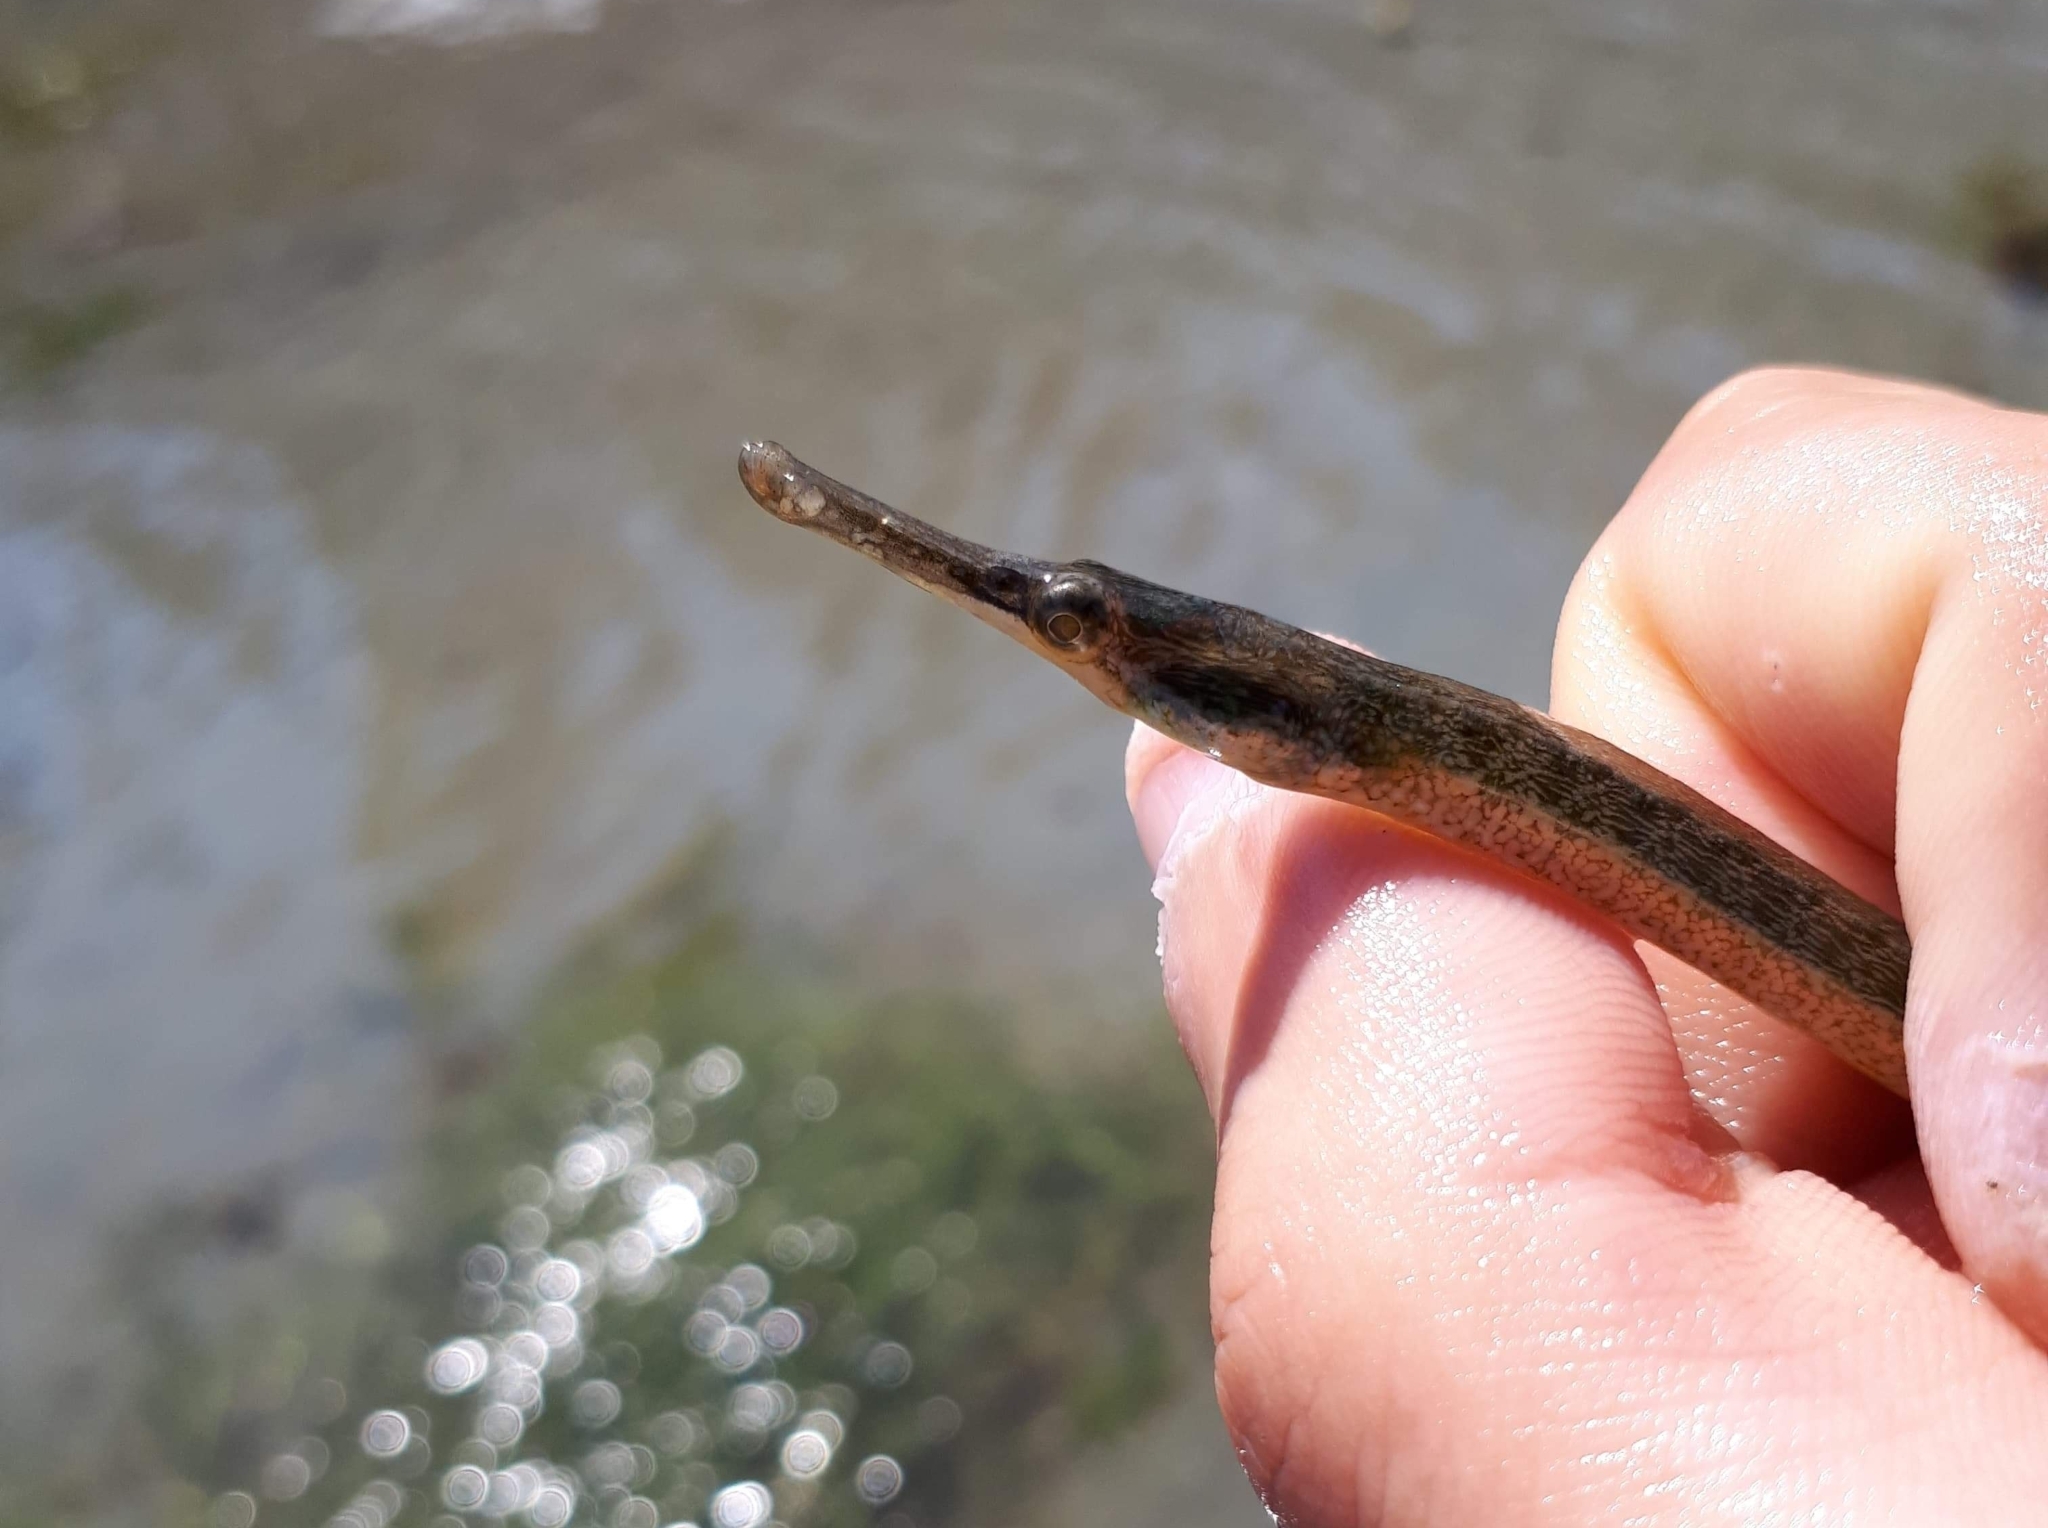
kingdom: Animalia
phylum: Chordata
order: Syngnathiformes
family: Syngnathidae
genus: Syngnathus
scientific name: Syngnathus californiensis
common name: Great pipefish
